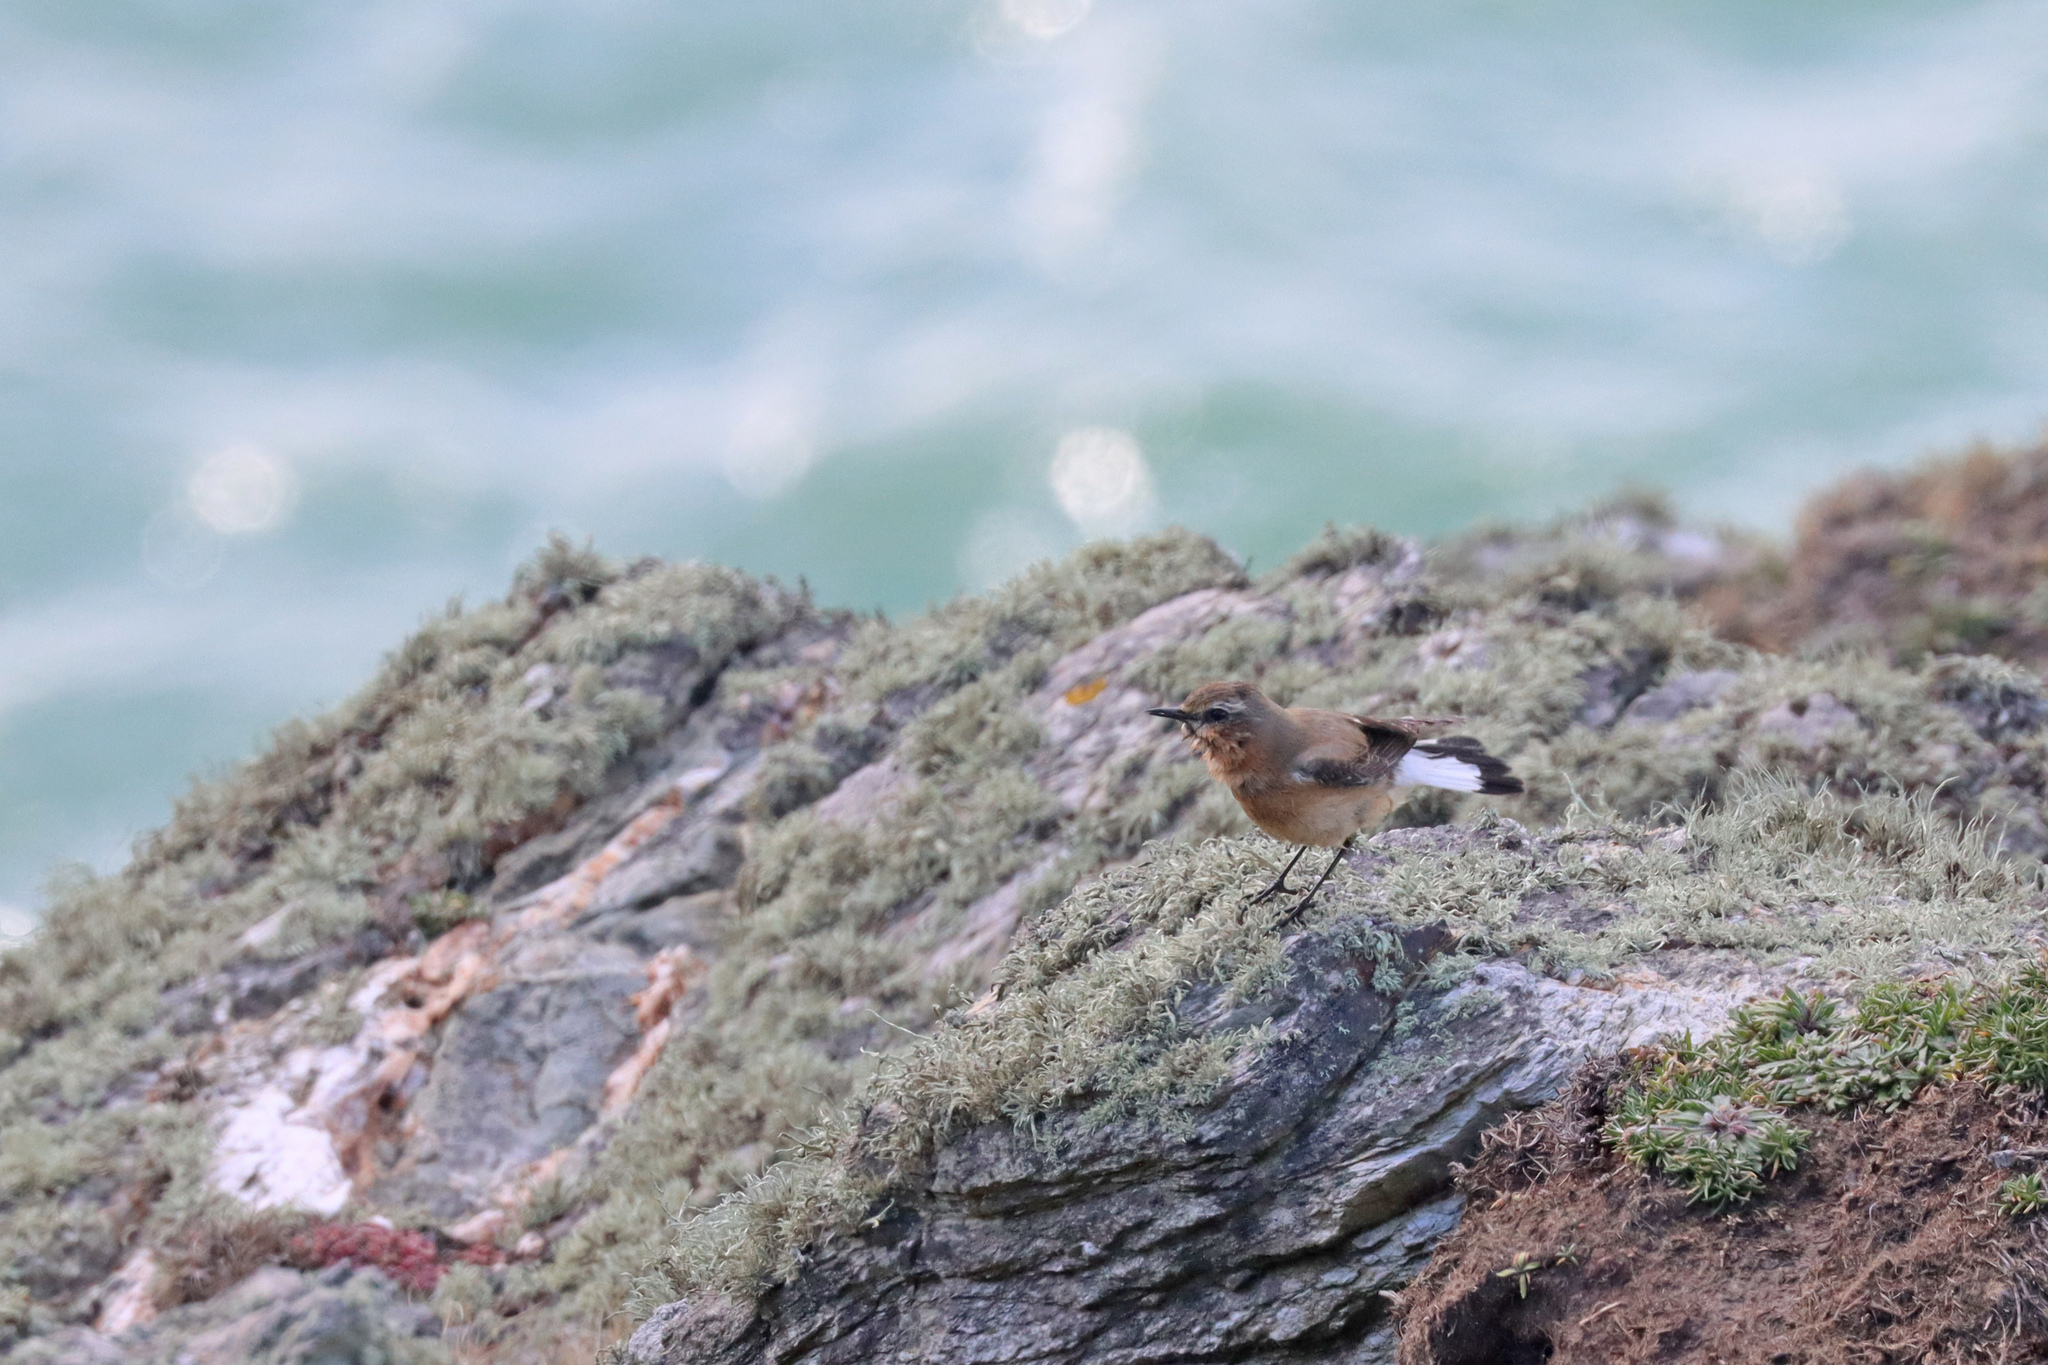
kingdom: Animalia
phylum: Chordata
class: Aves
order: Passeriformes
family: Muscicapidae
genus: Oenanthe
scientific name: Oenanthe oenanthe
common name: Northern wheatear
